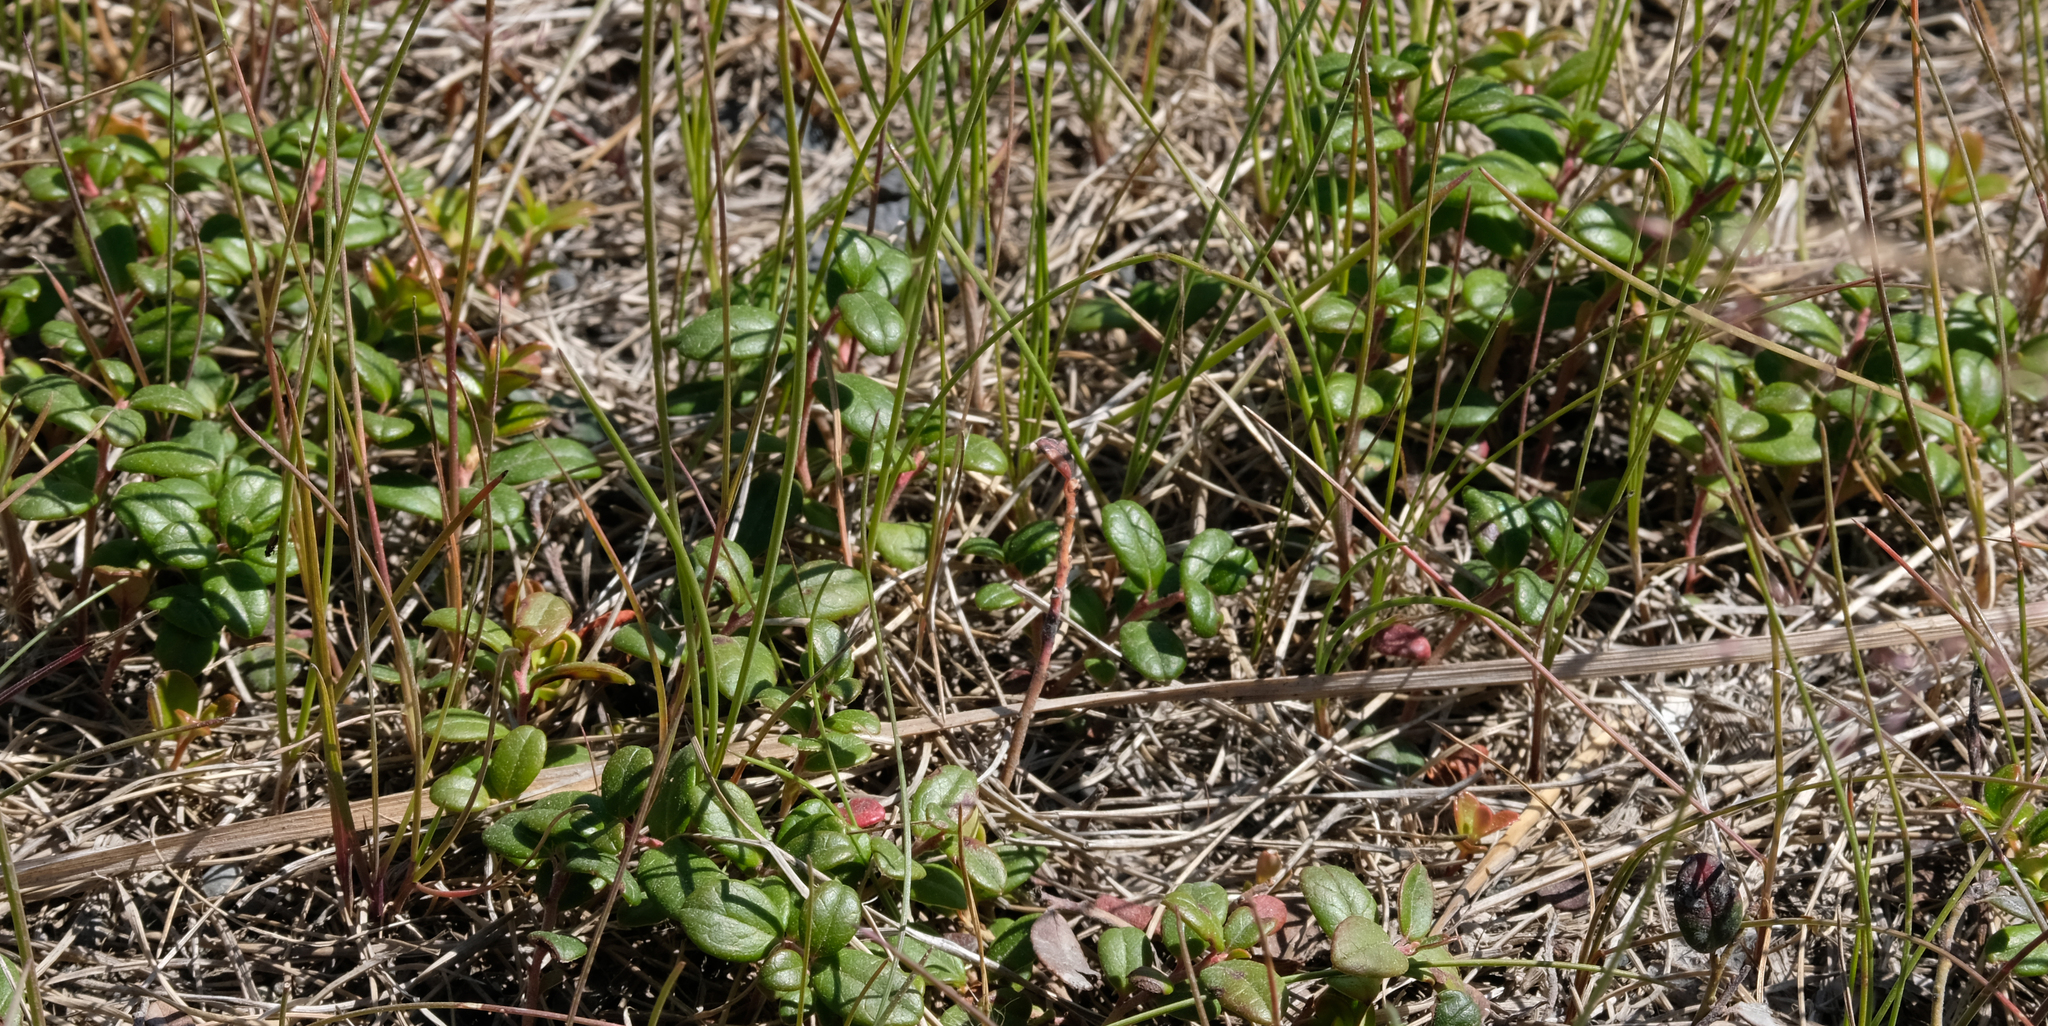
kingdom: Plantae
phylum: Tracheophyta
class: Magnoliopsida
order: Ericales
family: Ericaceae
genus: Vaccinium
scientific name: Vaccinium vitis-idaea
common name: Cowberry
